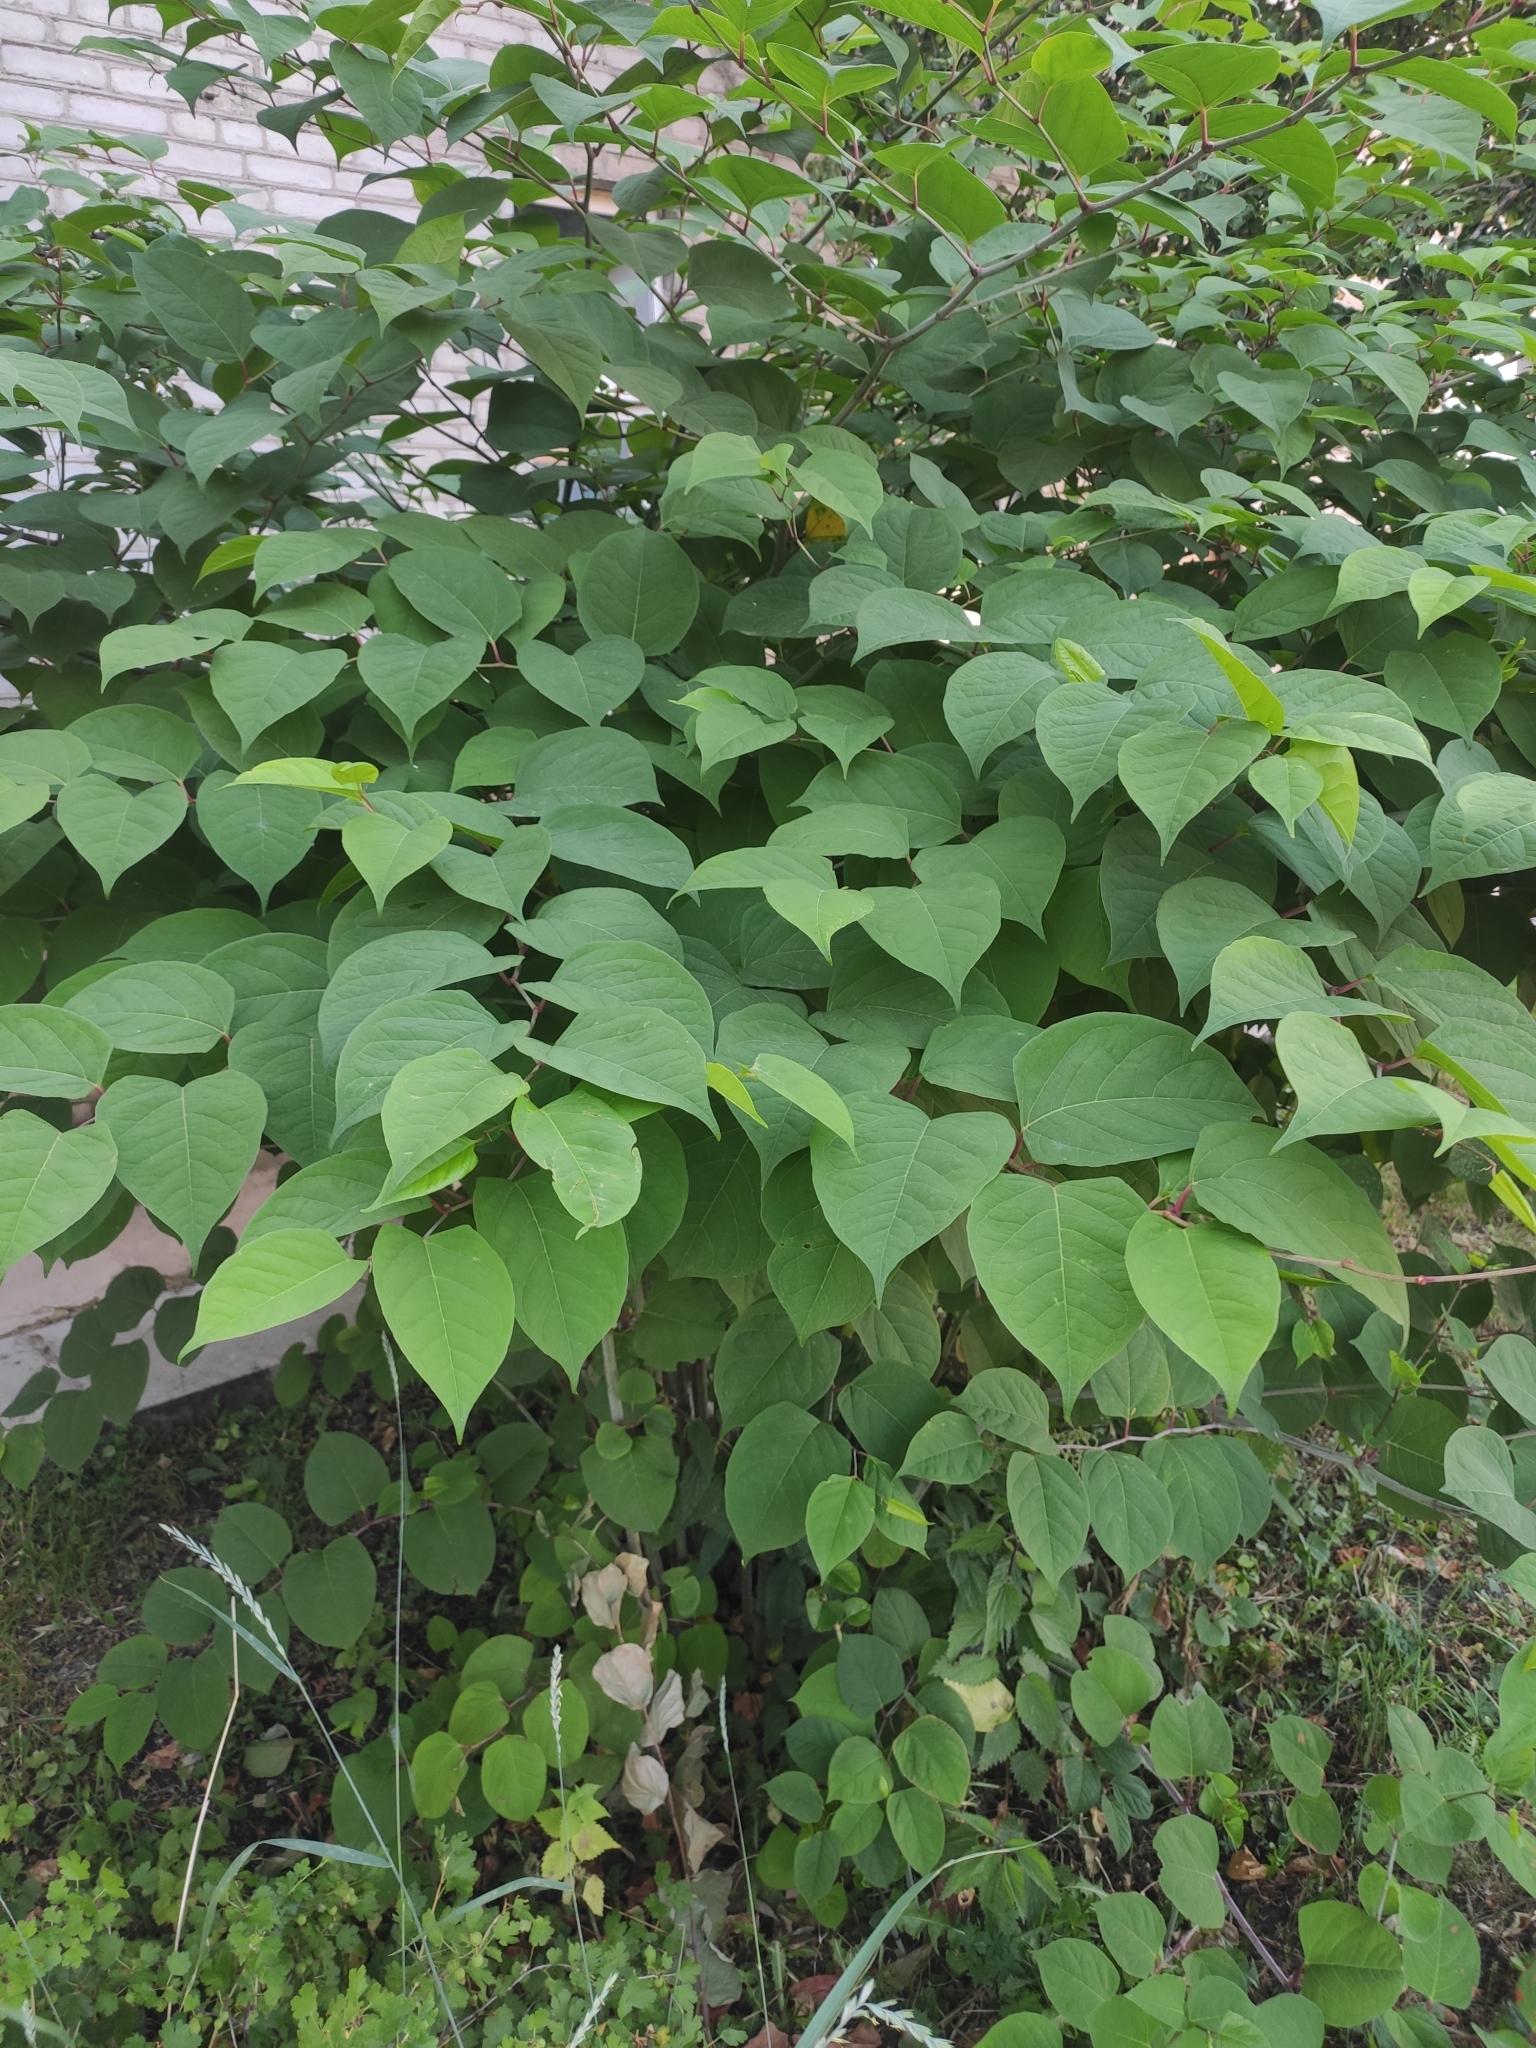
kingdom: Plantae
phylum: Tracheophyta
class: Magnoliopsida
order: Caryophyllales
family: Polygonaceae
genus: Reynoutria
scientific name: Reynoutria japonica
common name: Japanese knotweed
